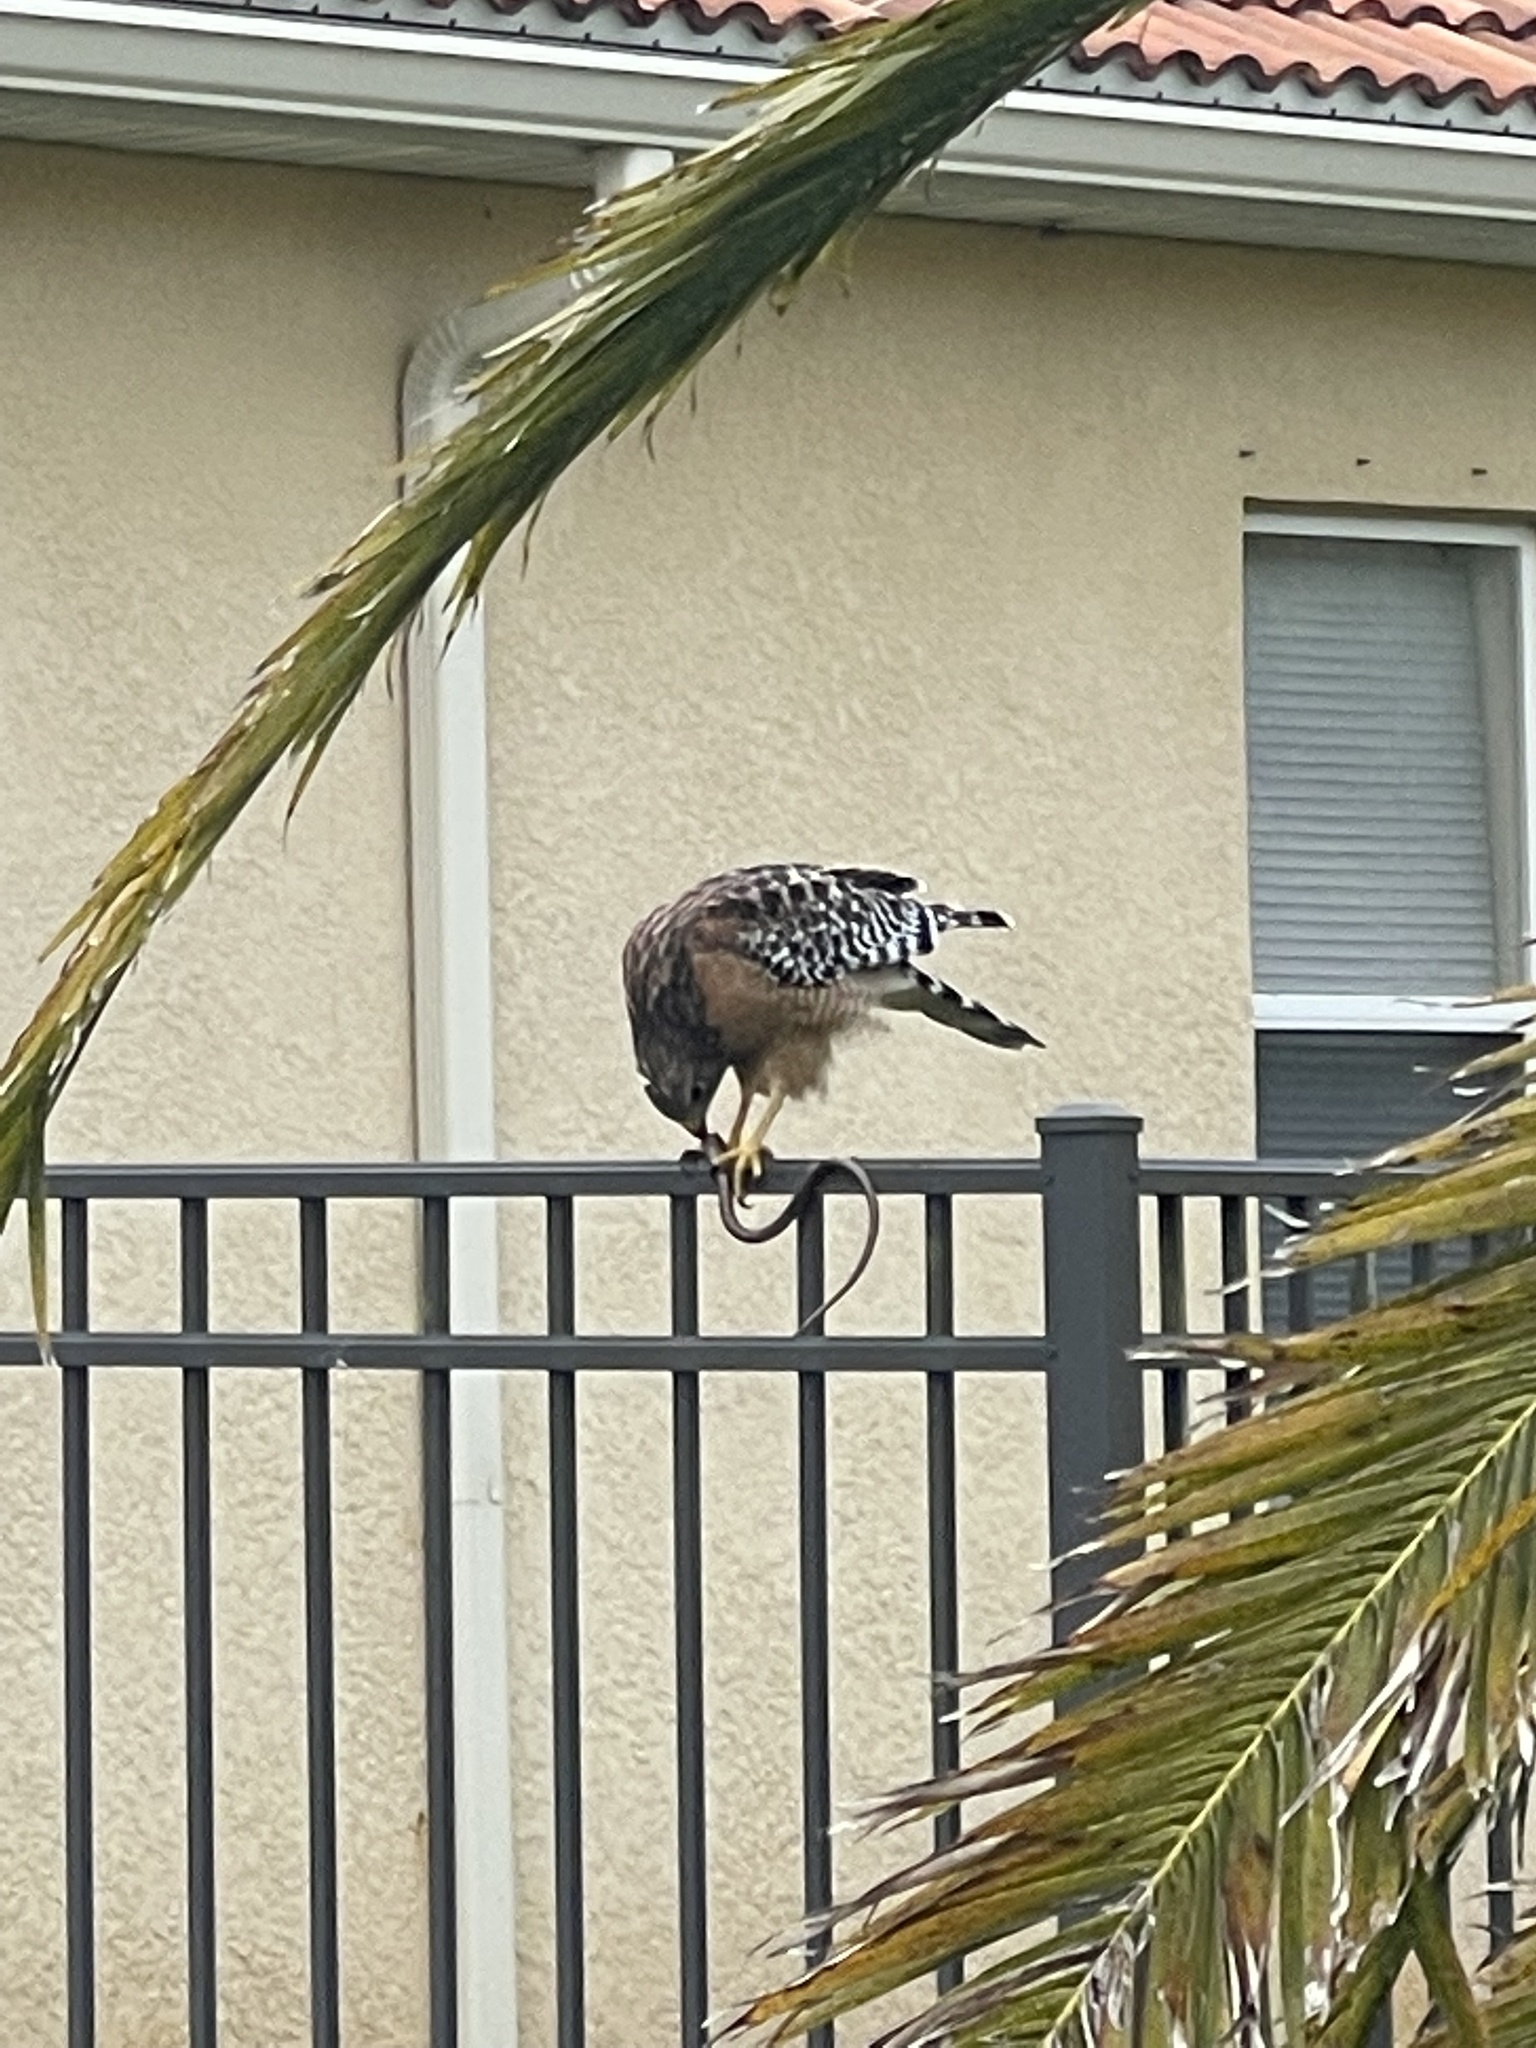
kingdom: Animalia
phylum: Chordata
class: Aves
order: Accipitriformes
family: Accipitridae
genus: Buteo
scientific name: Buteo lineatus
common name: Red-shouldered hawk
